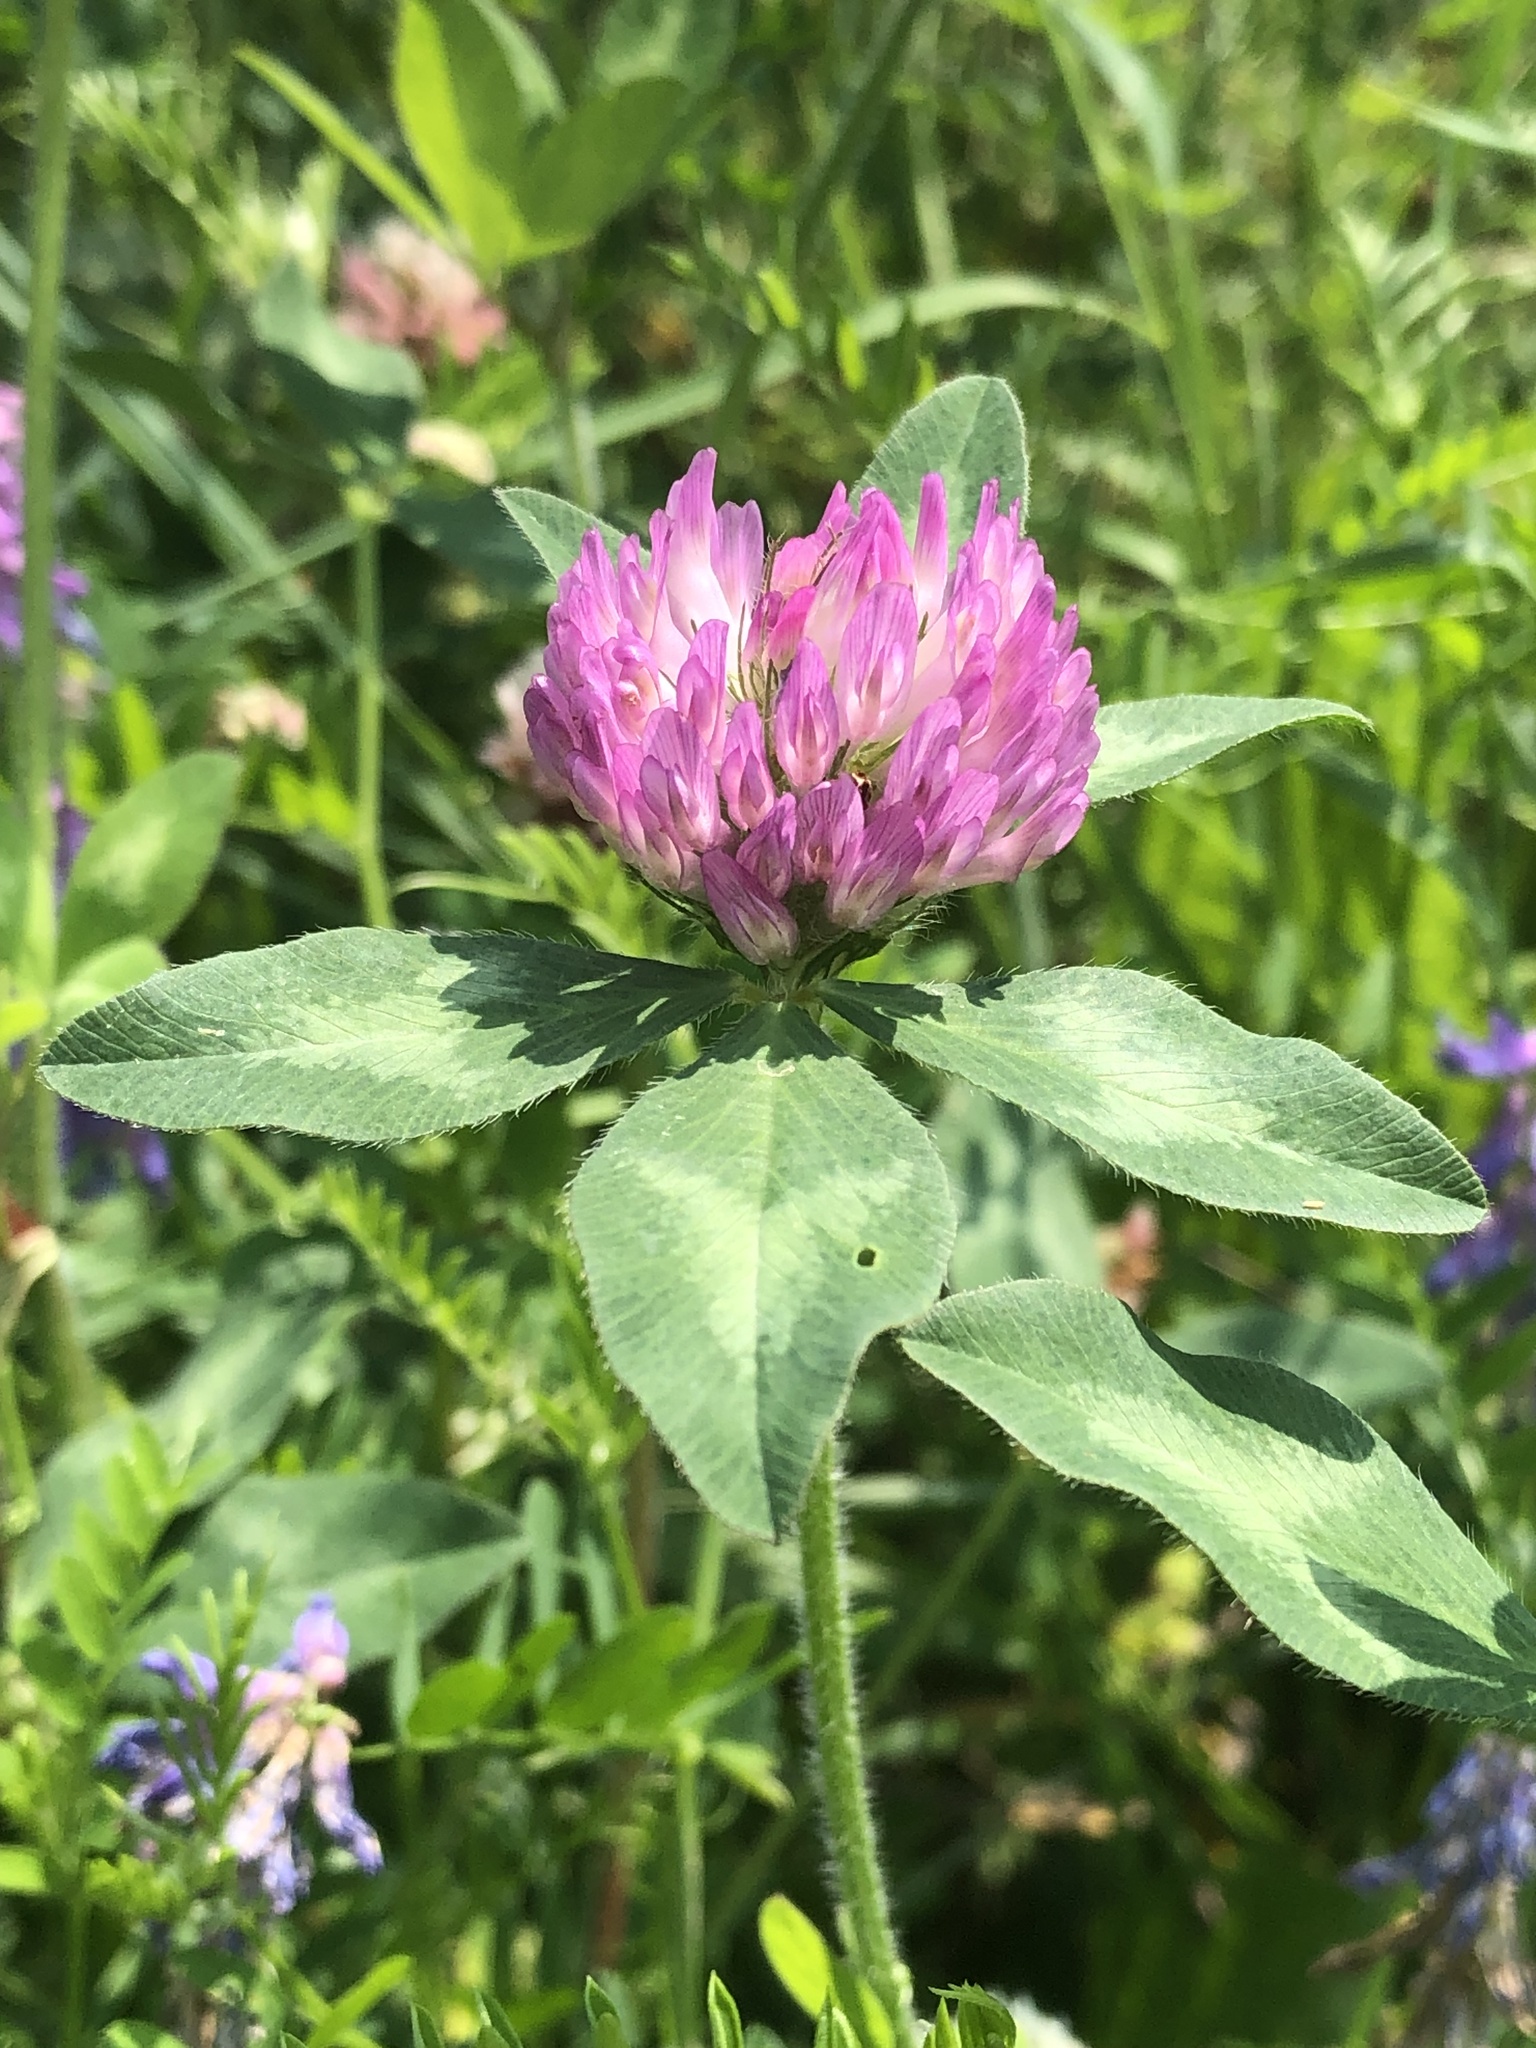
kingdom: Plantae
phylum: Tracheophyta
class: Magnoliopsida
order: Fabales
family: Fabaceae
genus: Trifolium
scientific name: Trifolium pratense
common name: Red clover
